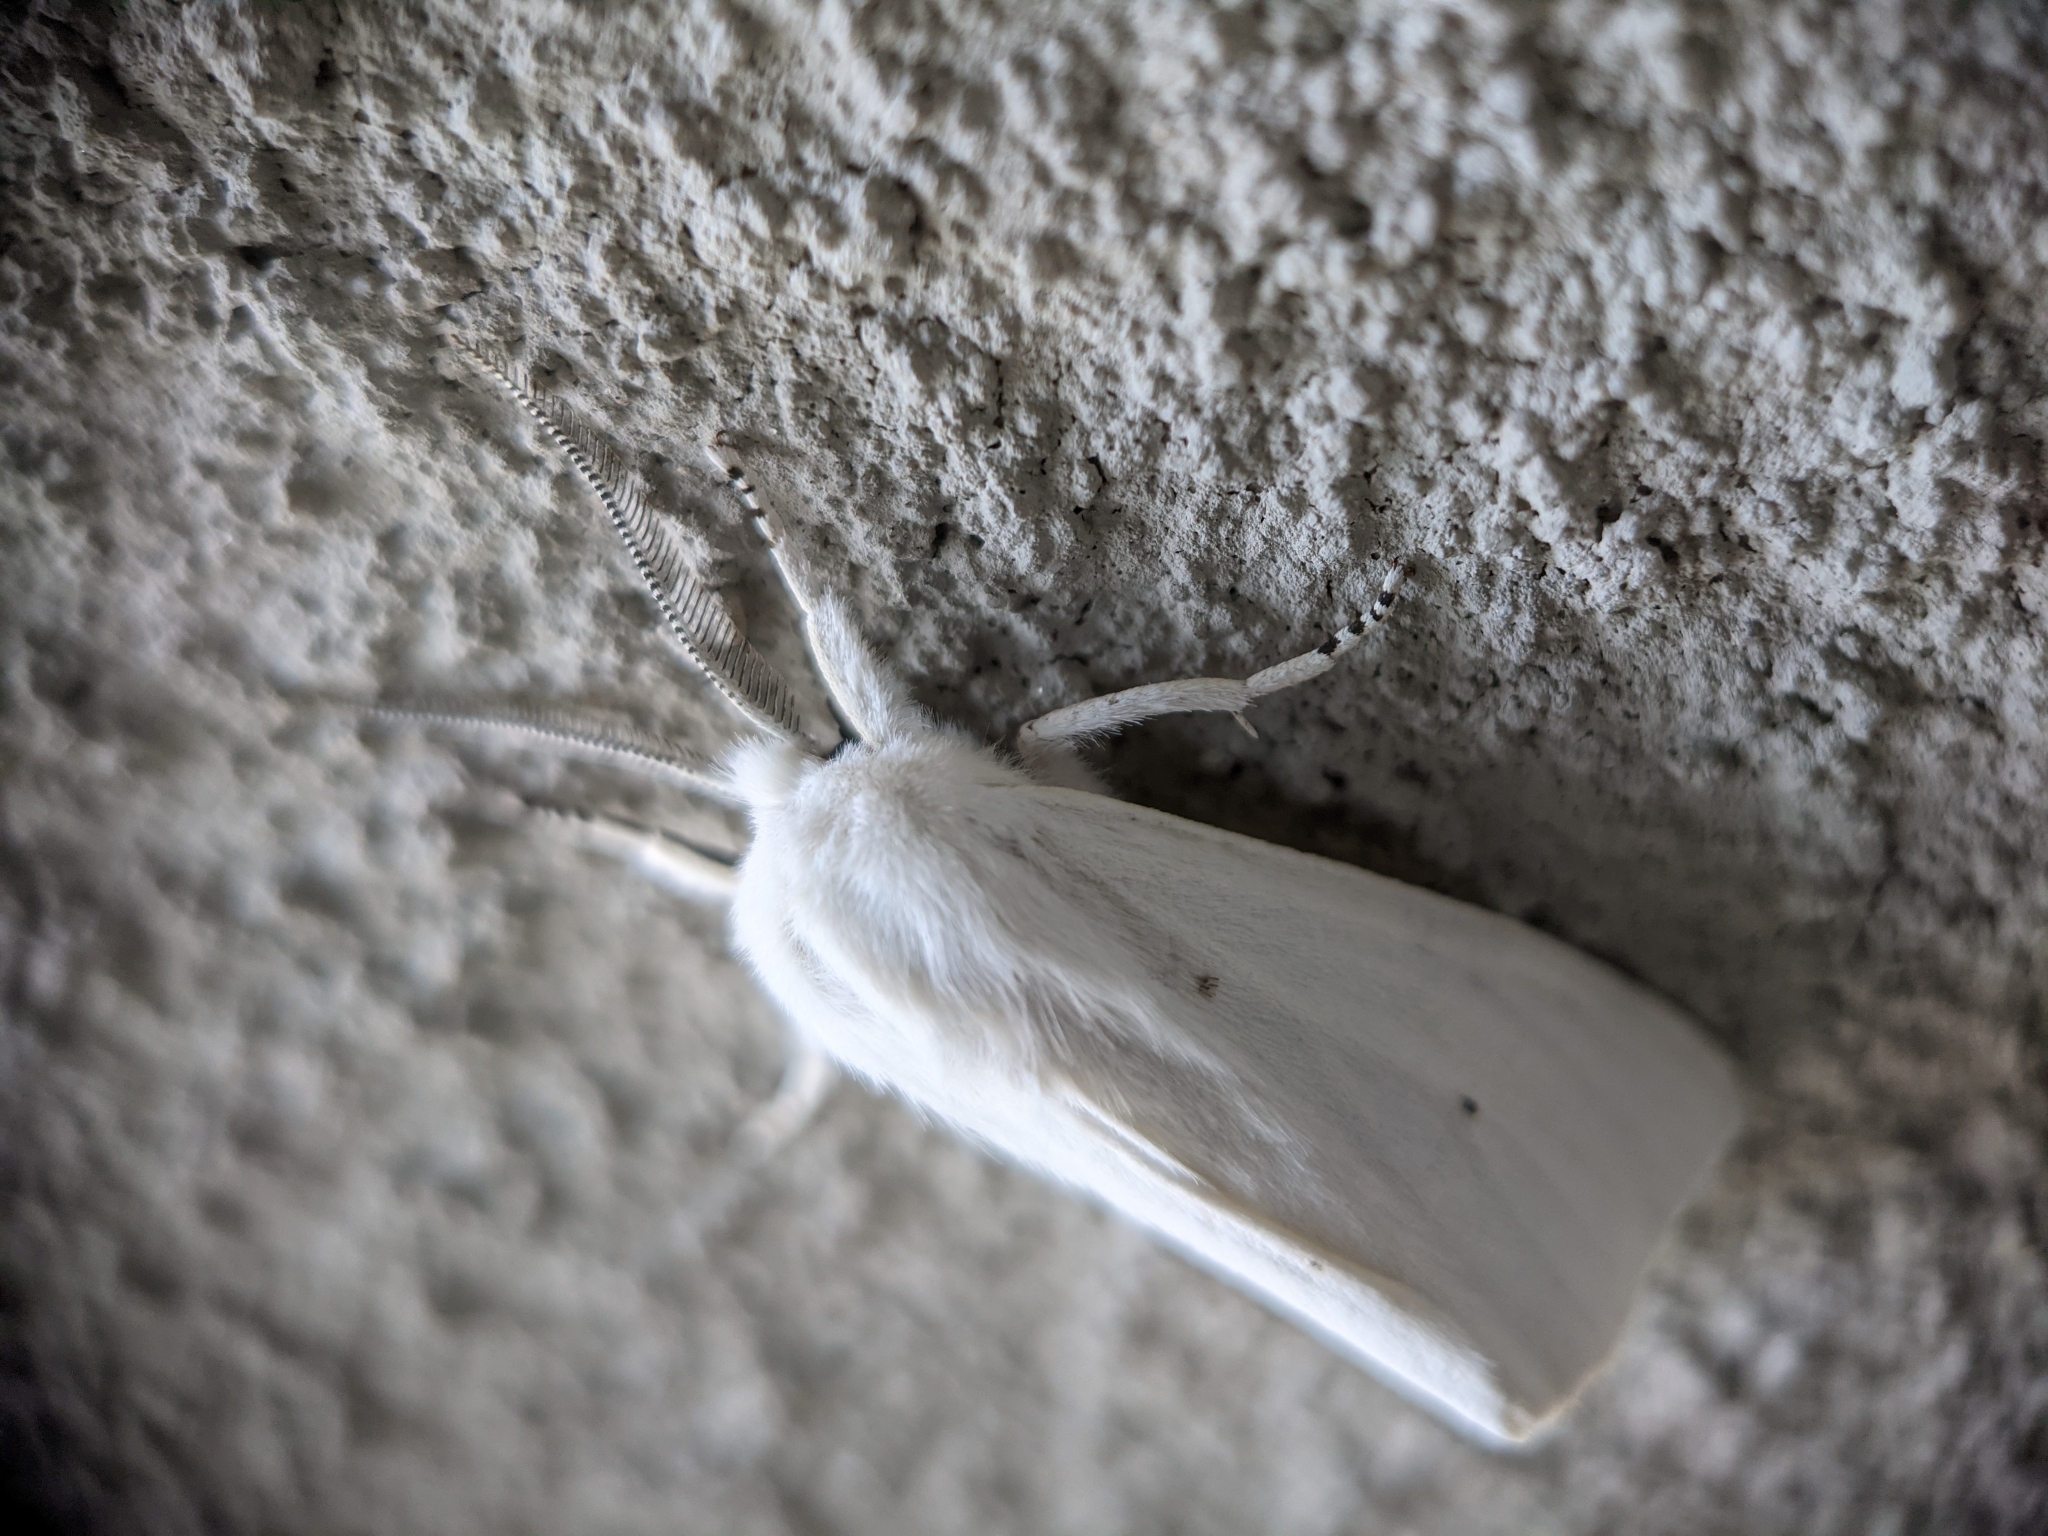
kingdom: Animalia
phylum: Arthropoda
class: Insecta
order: Lepidoptera
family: Erebidae
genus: Spilosoma
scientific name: Spilosoma virginica
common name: Virginia tiger moth
